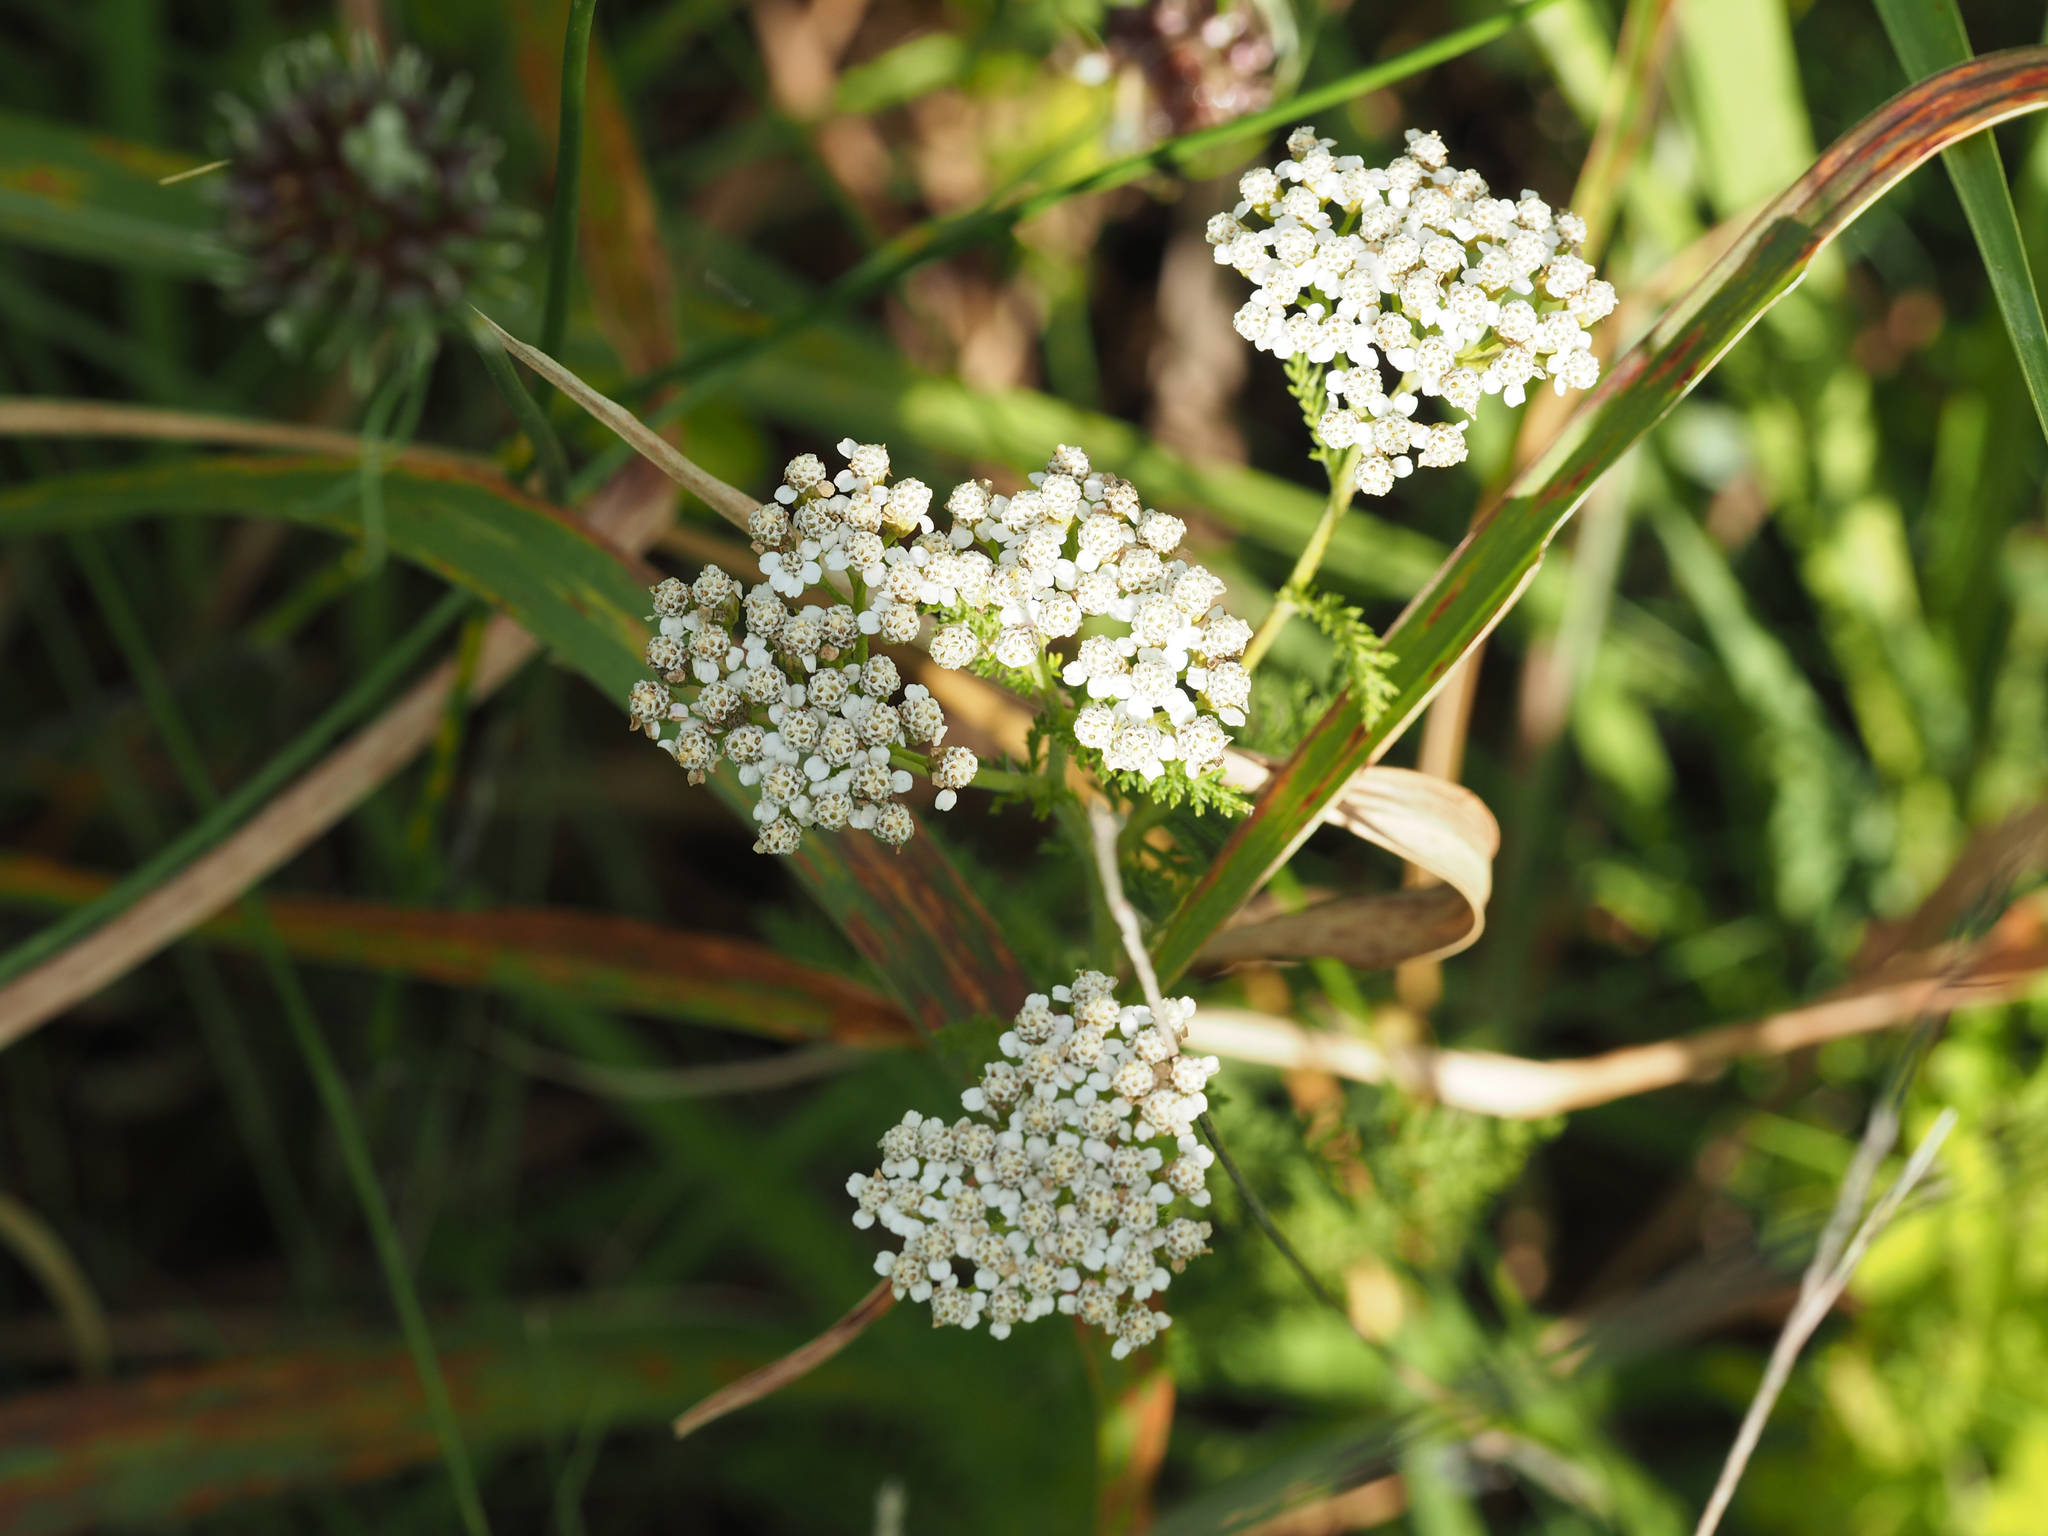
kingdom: Plantae
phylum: Tracheophyta
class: Magnoliopsida
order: Asterales
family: Asteraceae
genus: Achillea
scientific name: Achillea millefolium
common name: Yarrow
